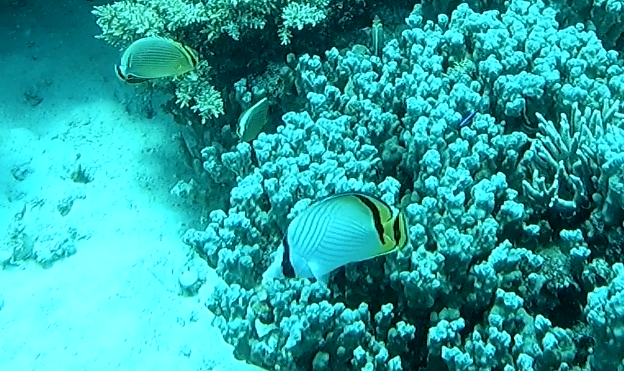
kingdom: Animalia
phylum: Chordata
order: Perciformes
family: Chaetodontidae
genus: Chaetodon
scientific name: Chaetodon vagabundus
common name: Vagabond butterflyfish
